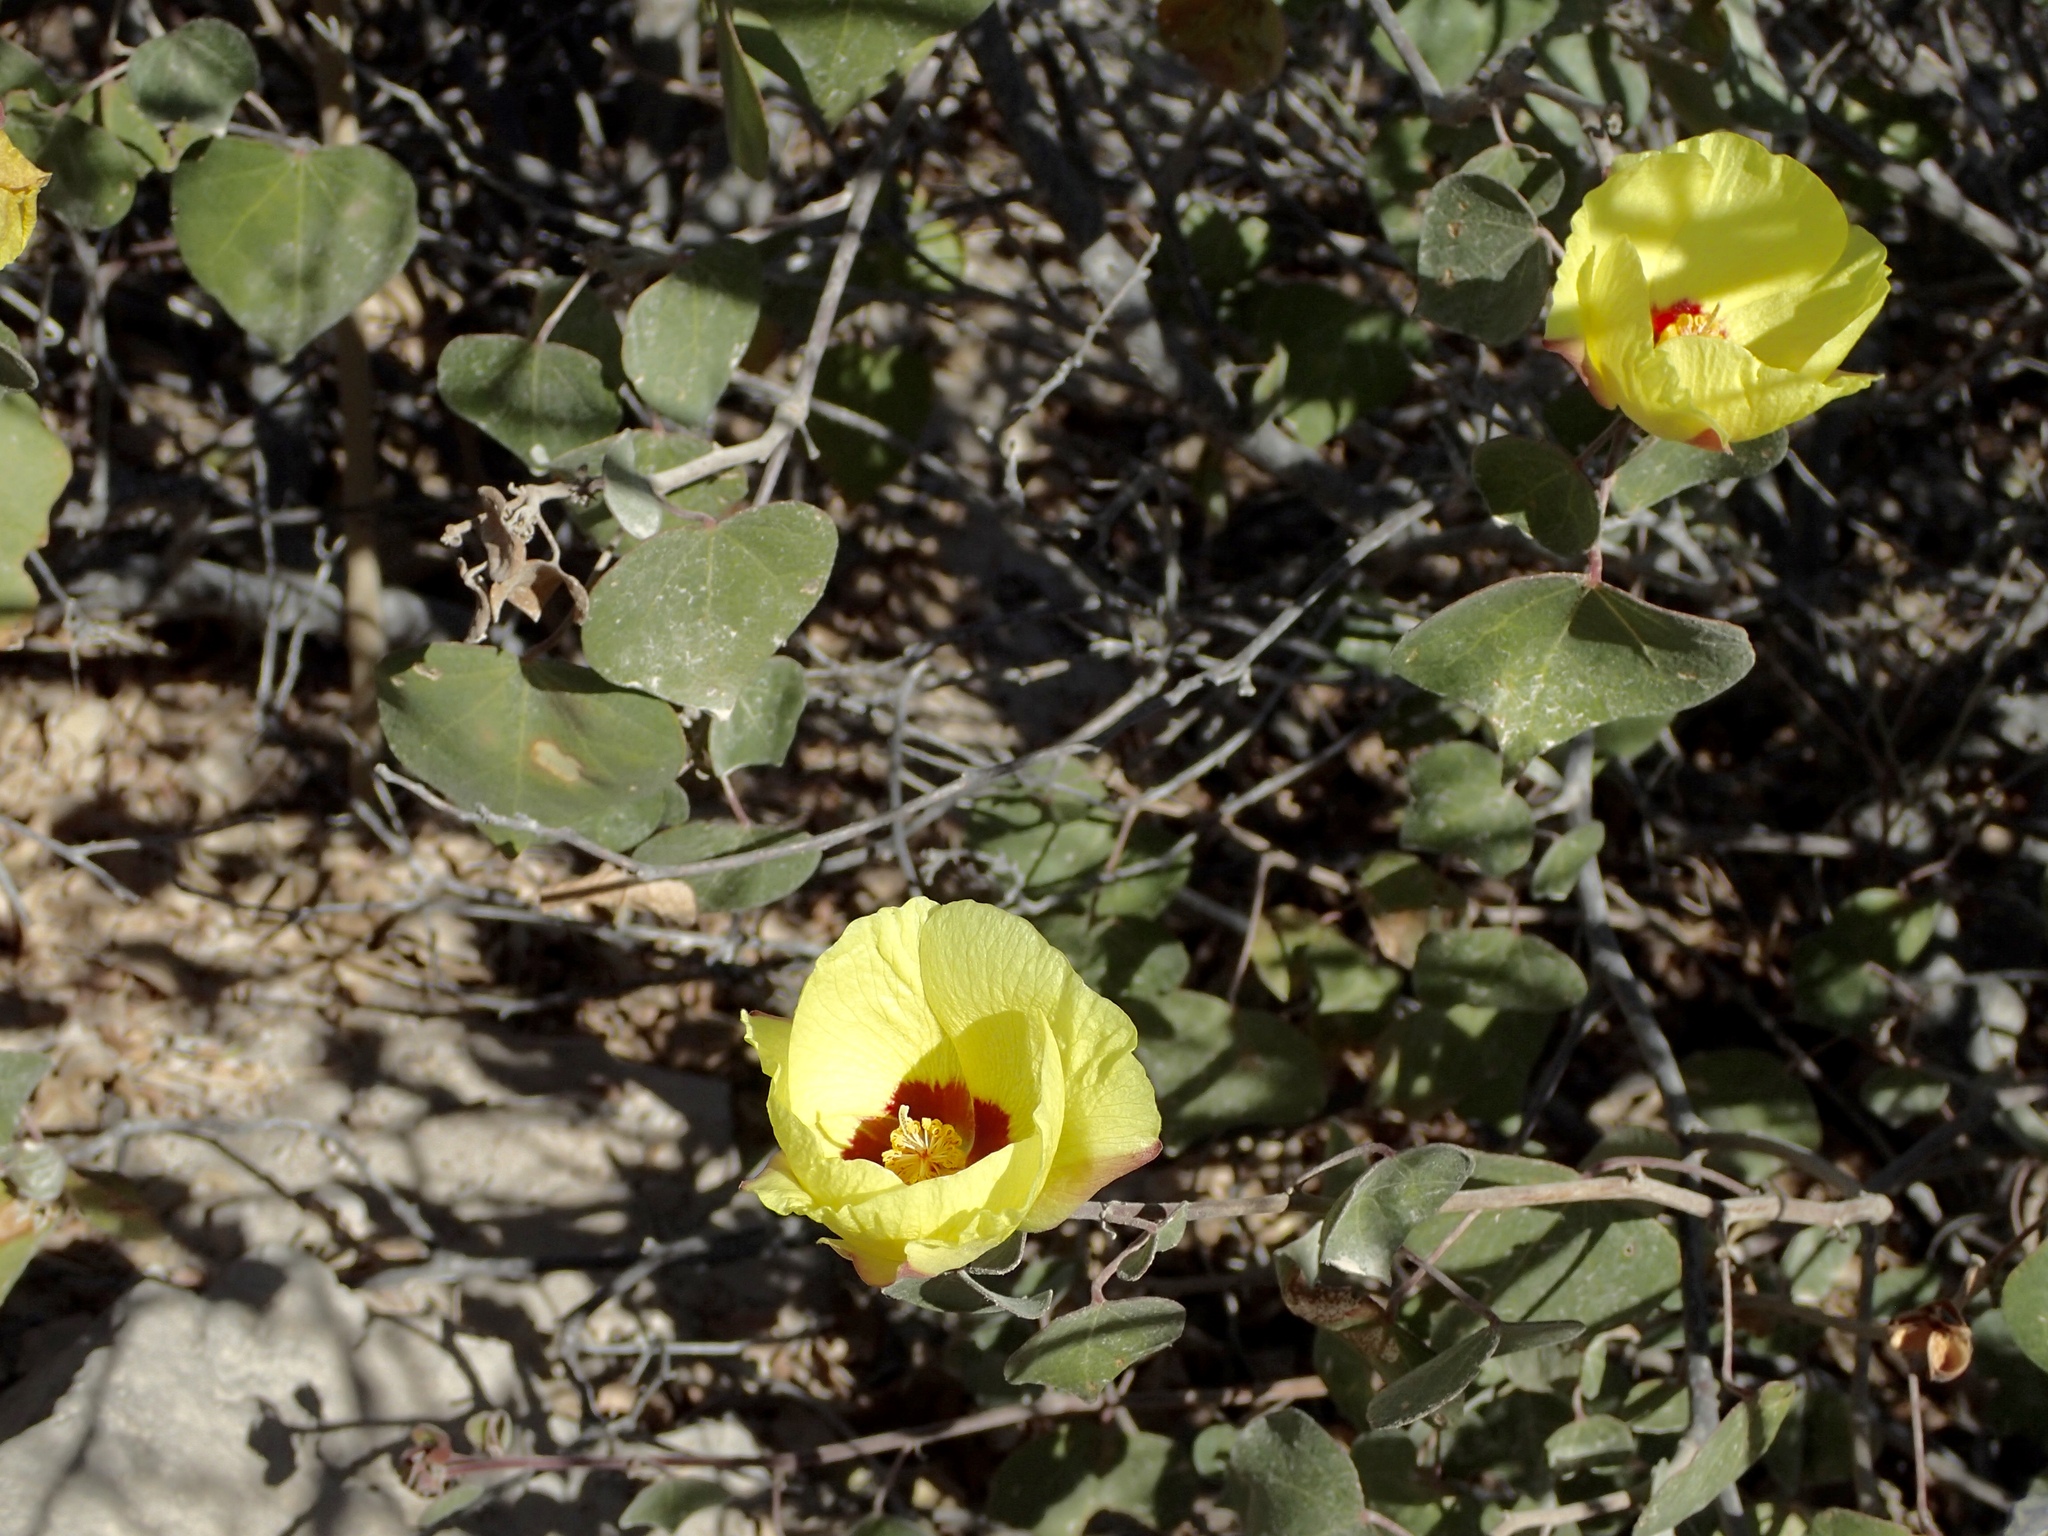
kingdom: Plantae
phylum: Tracheophyta
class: Magnoliopsida
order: Malvales
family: Malvaceae
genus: Gossypium
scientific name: Gossypium harknessii
